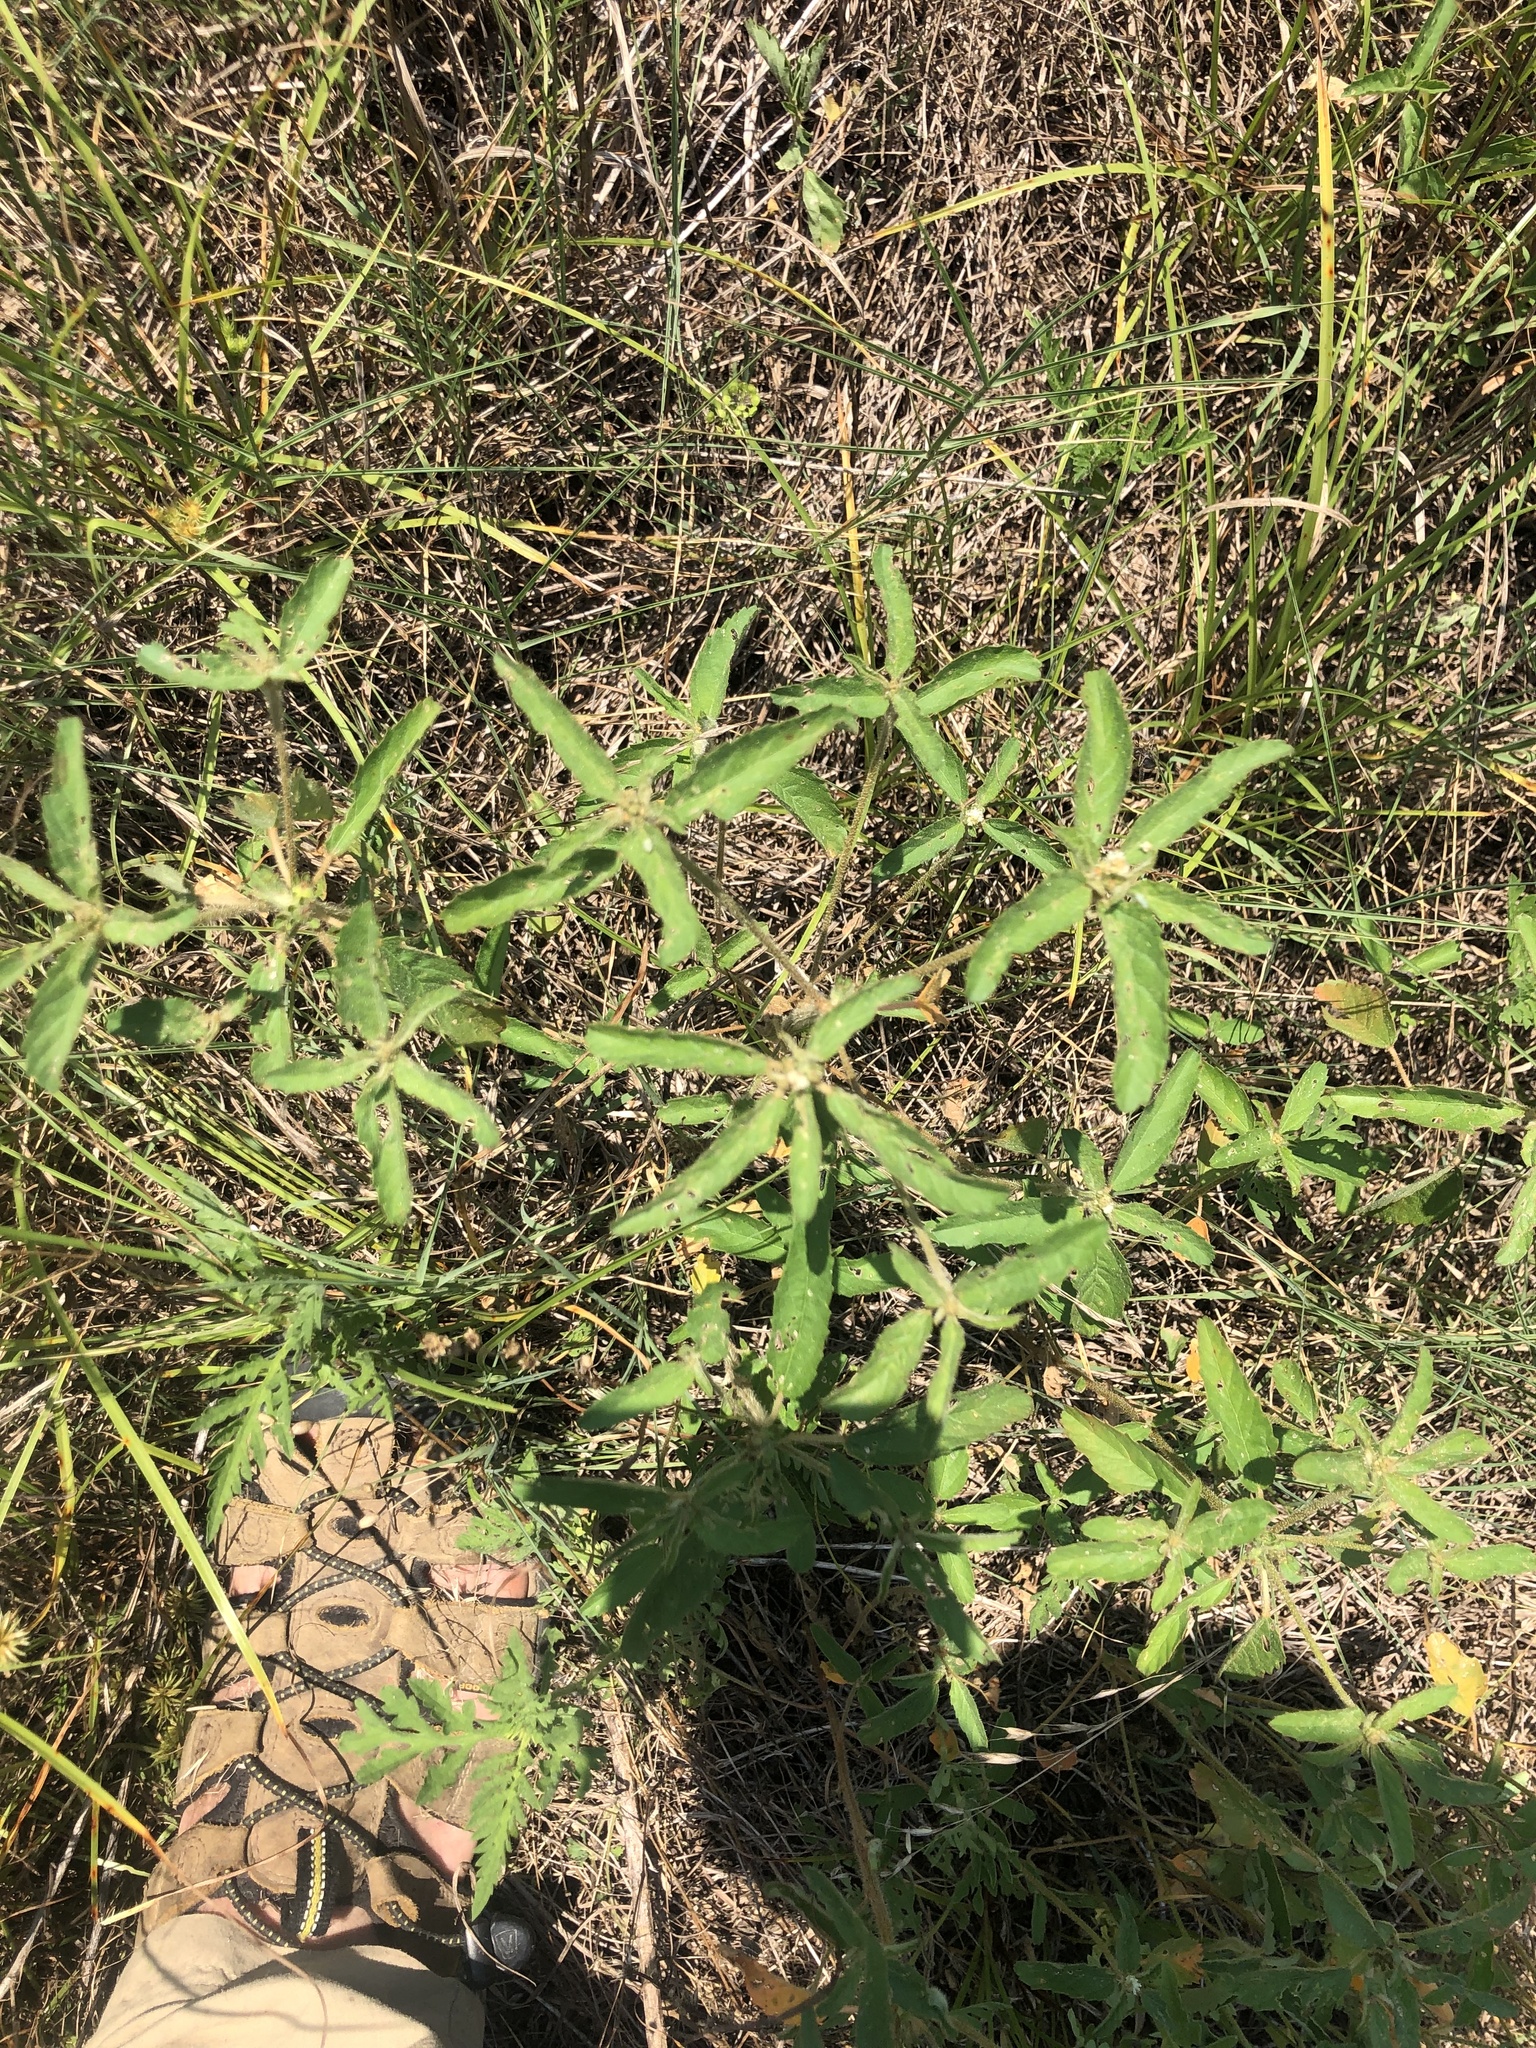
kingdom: Plantae
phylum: Tracheophyta
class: Magnoliopsida
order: Malpighiales
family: Euphorbiaceae
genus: Croton
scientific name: Croton glandulosus
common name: Tropic croton
